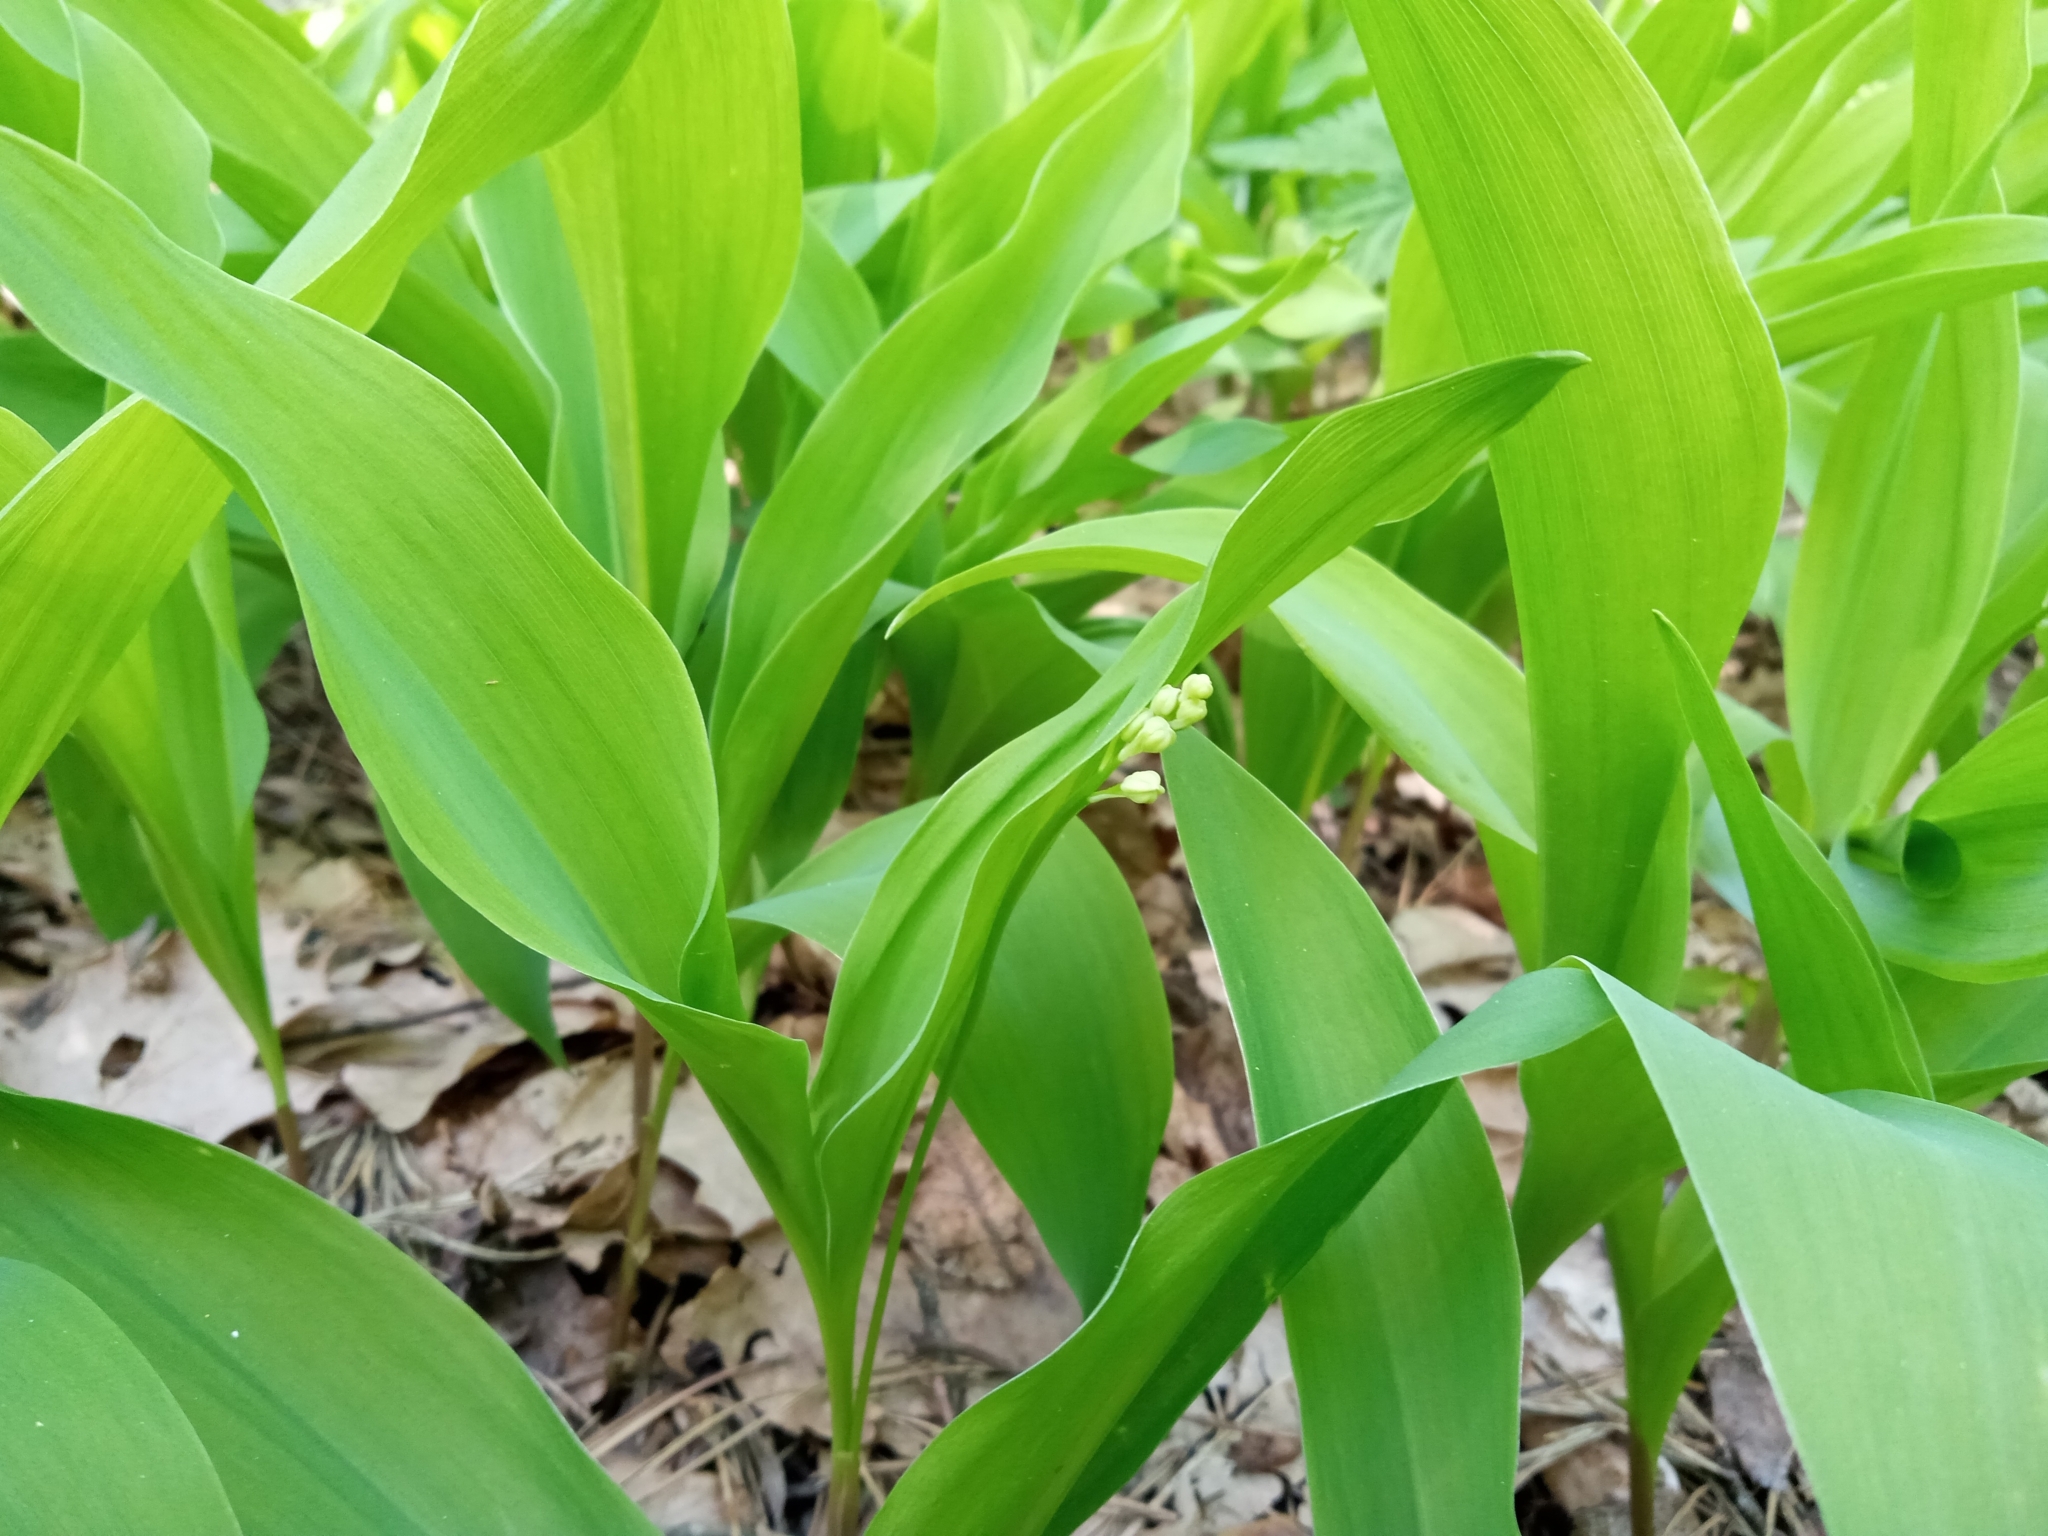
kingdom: Plantae
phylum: Tracheophyta
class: Liliopsida
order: Asparagales
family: Asparagaceae
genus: Convallaria
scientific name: Convallaria majalis
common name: Lily-of-the-valley
